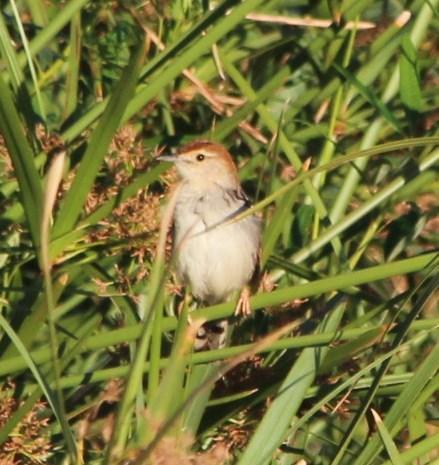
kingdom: Animalia
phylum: Chordata
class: Aves
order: Passeriformes
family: Cisticolidae
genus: Cisticola
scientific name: Cisticola tinniens
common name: Levaillant's cisticola
